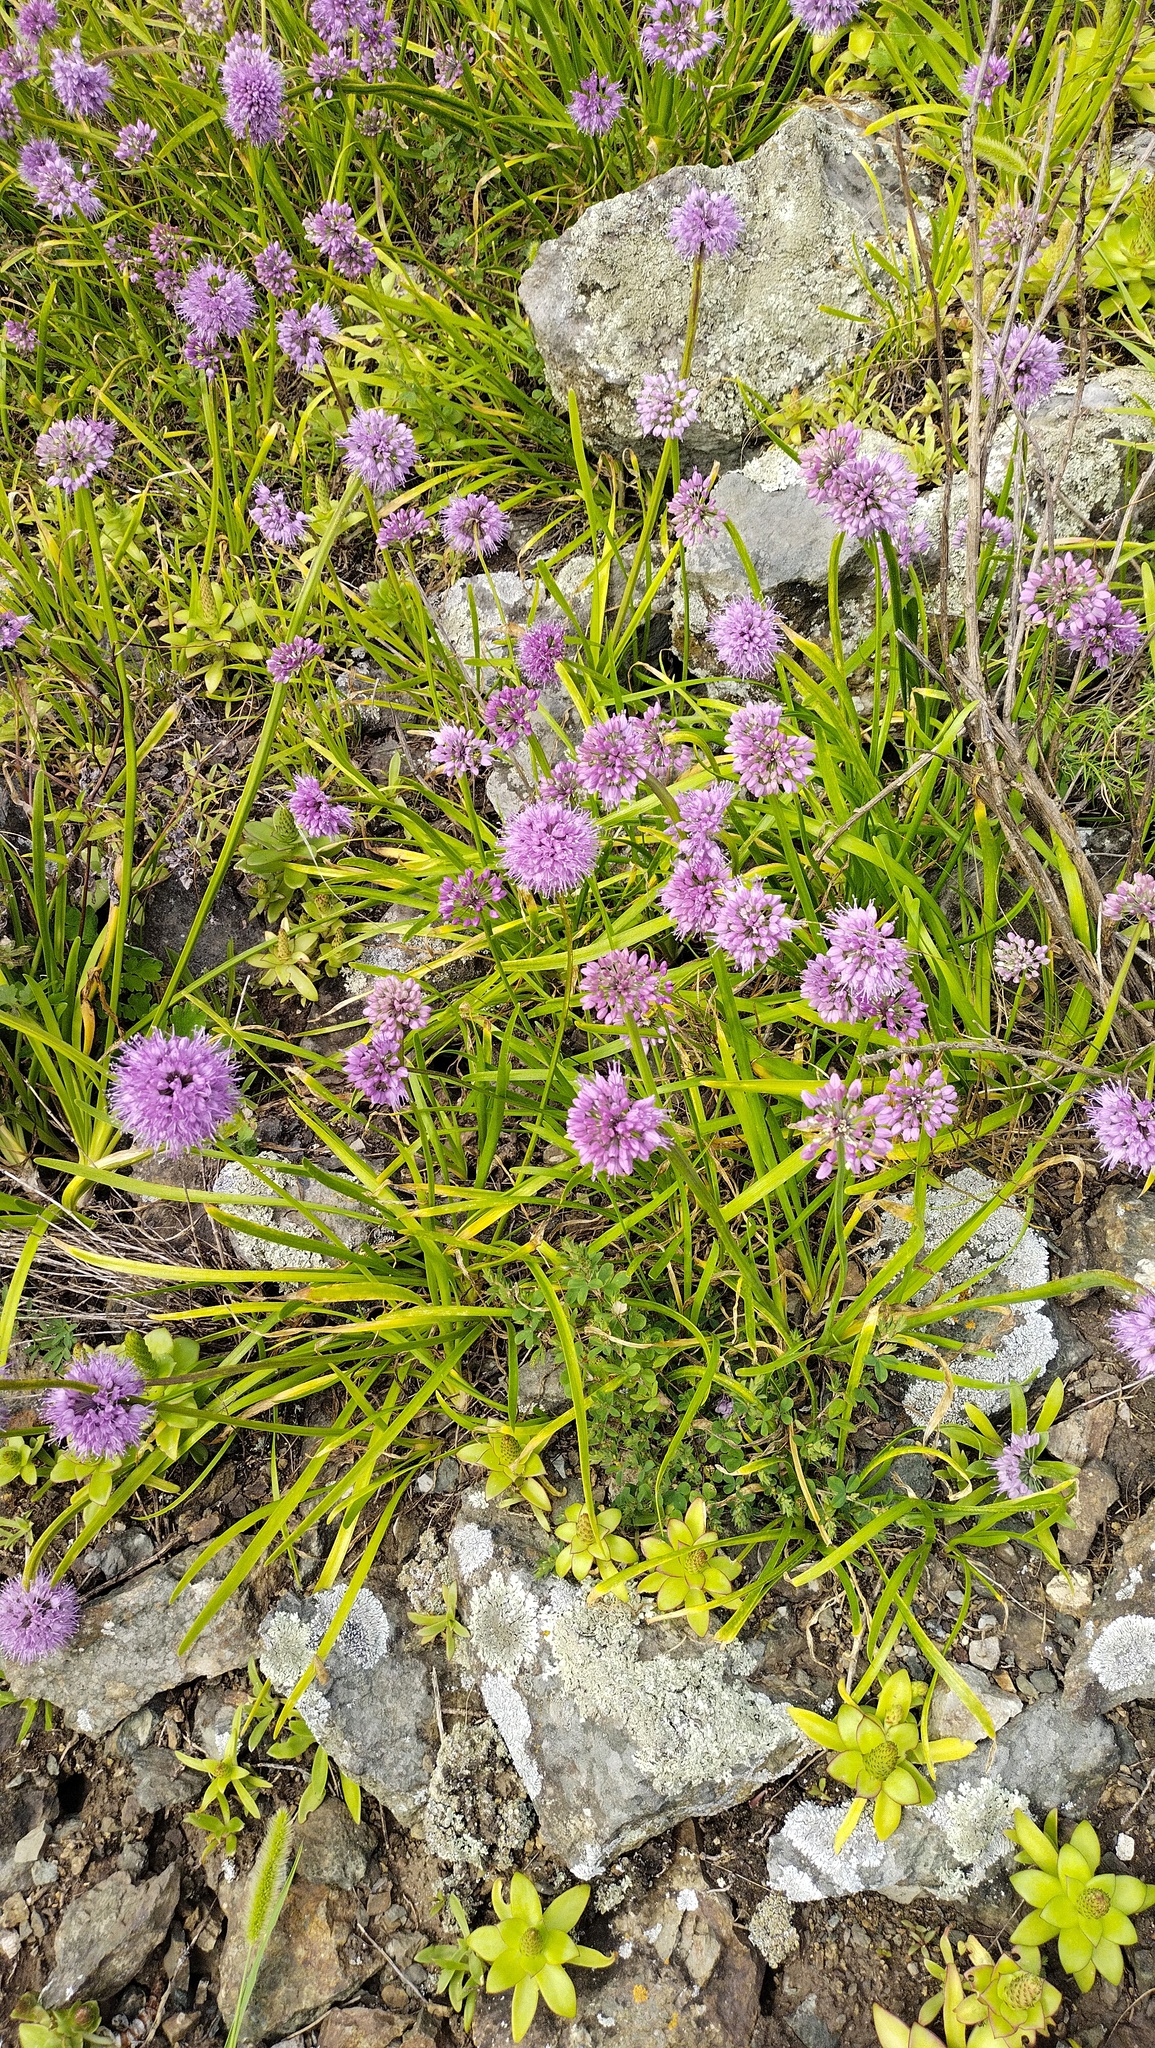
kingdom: Plantae
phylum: Tracheophyta
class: Liliopsida
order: Asparagales
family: Amaryllidaceae
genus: Allium
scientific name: Allium spirale
